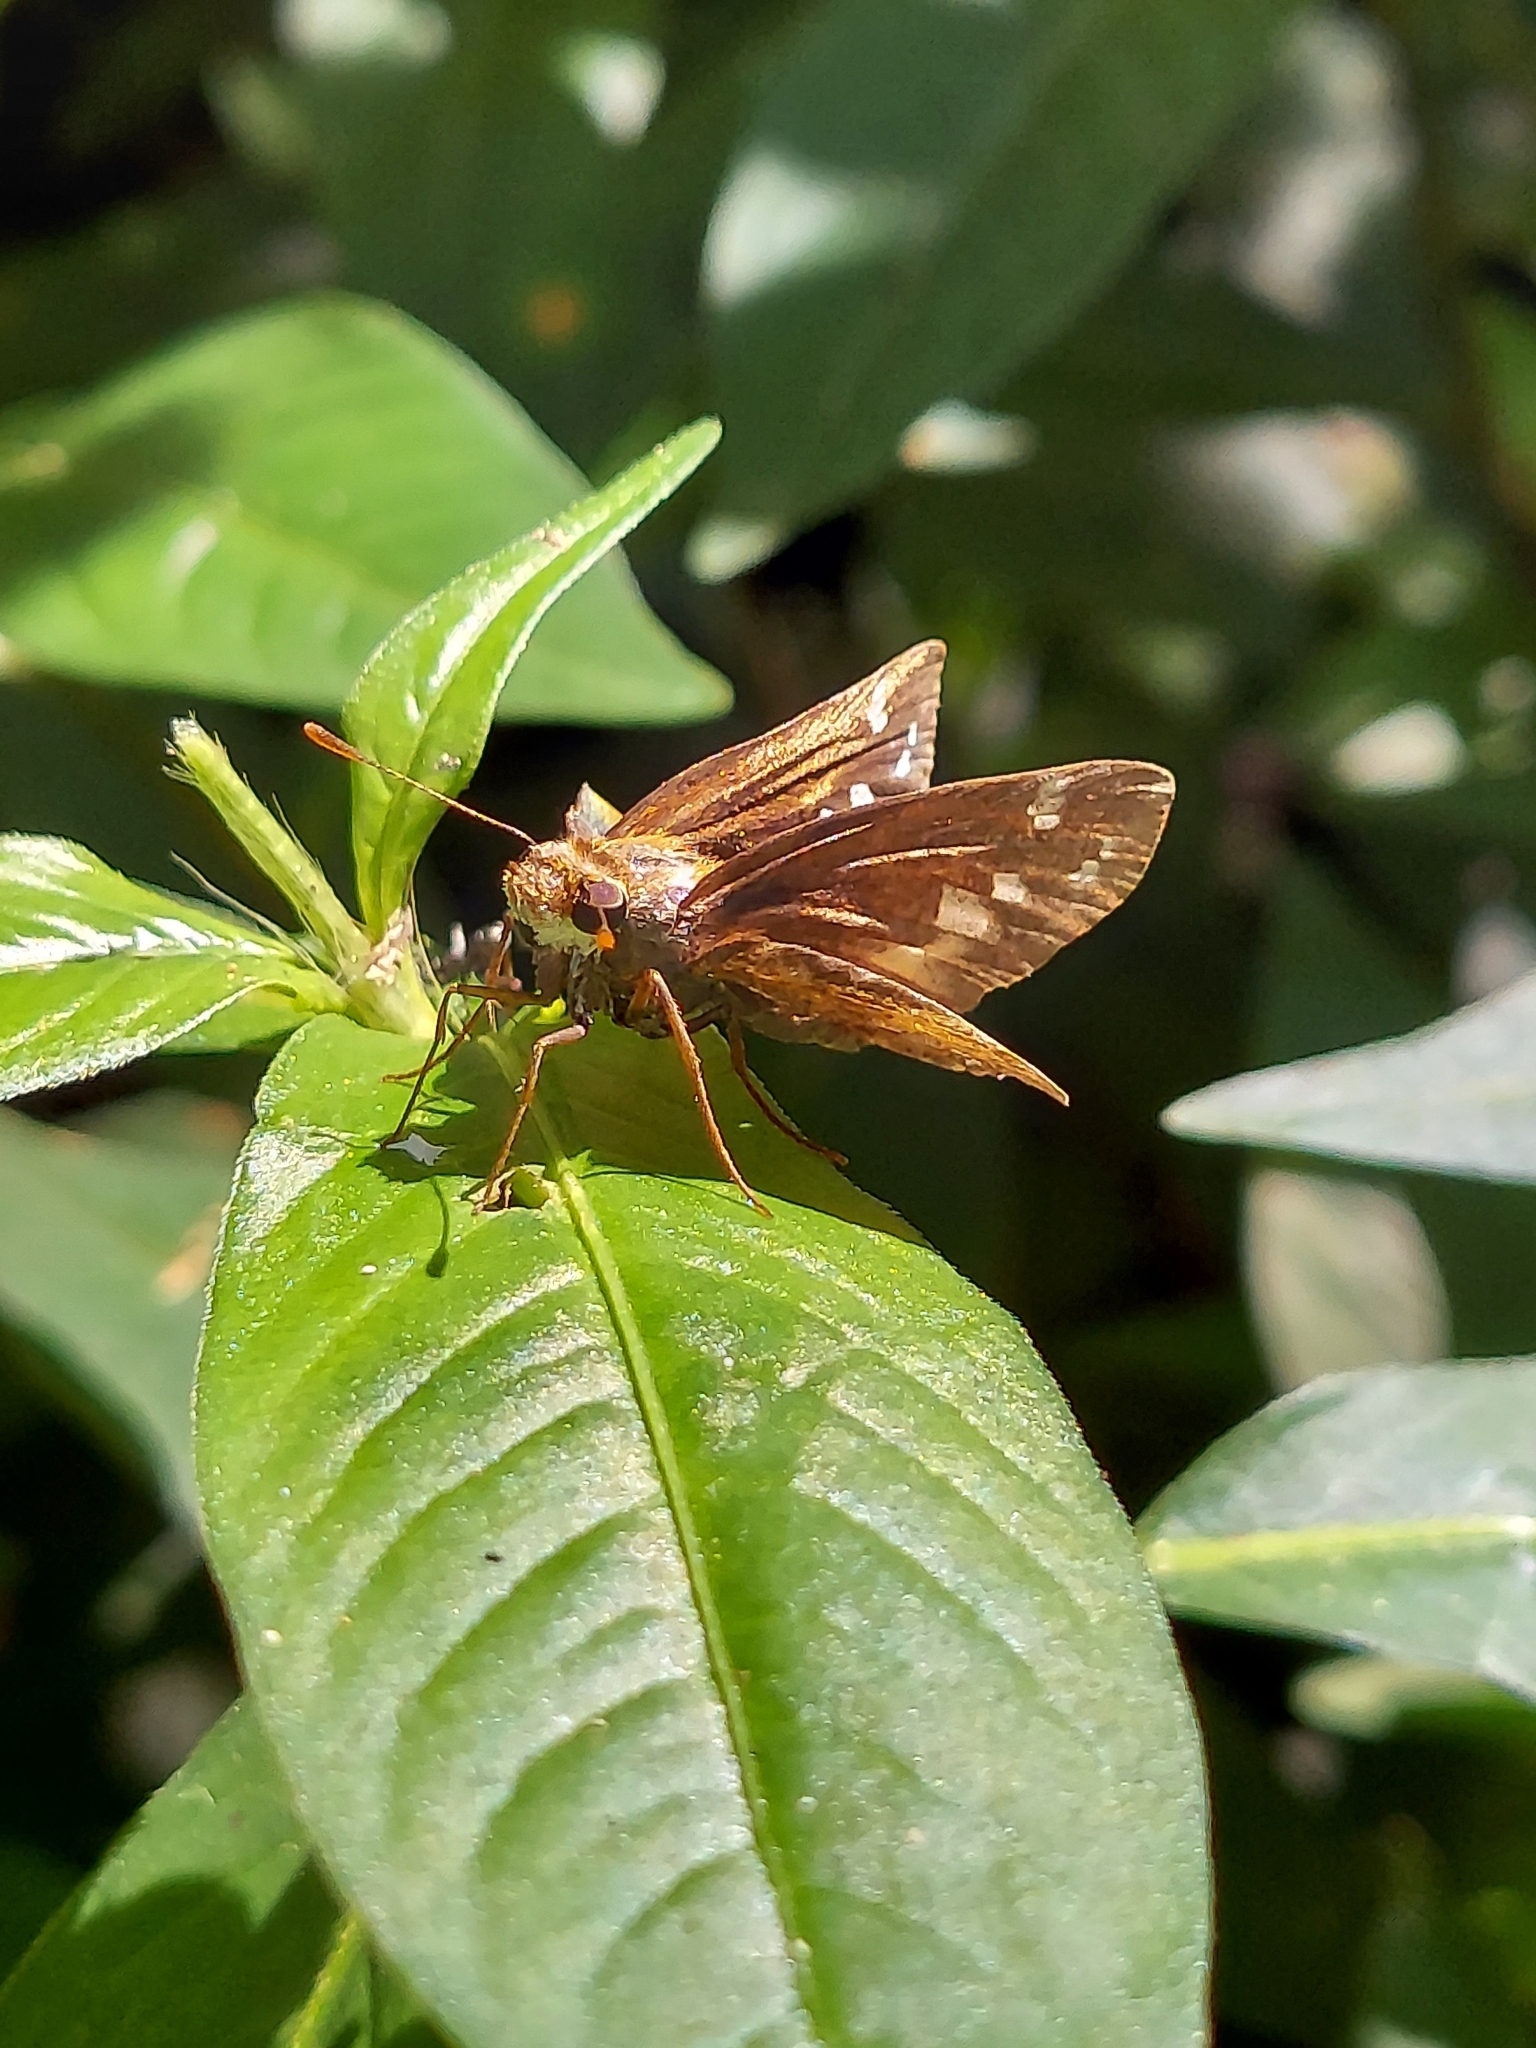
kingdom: Animalia
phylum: Arthropoda
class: Insecta
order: Lepidoptera
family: Hesperiidae
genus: Lon
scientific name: Lon zabulon
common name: Zabulon skipper
